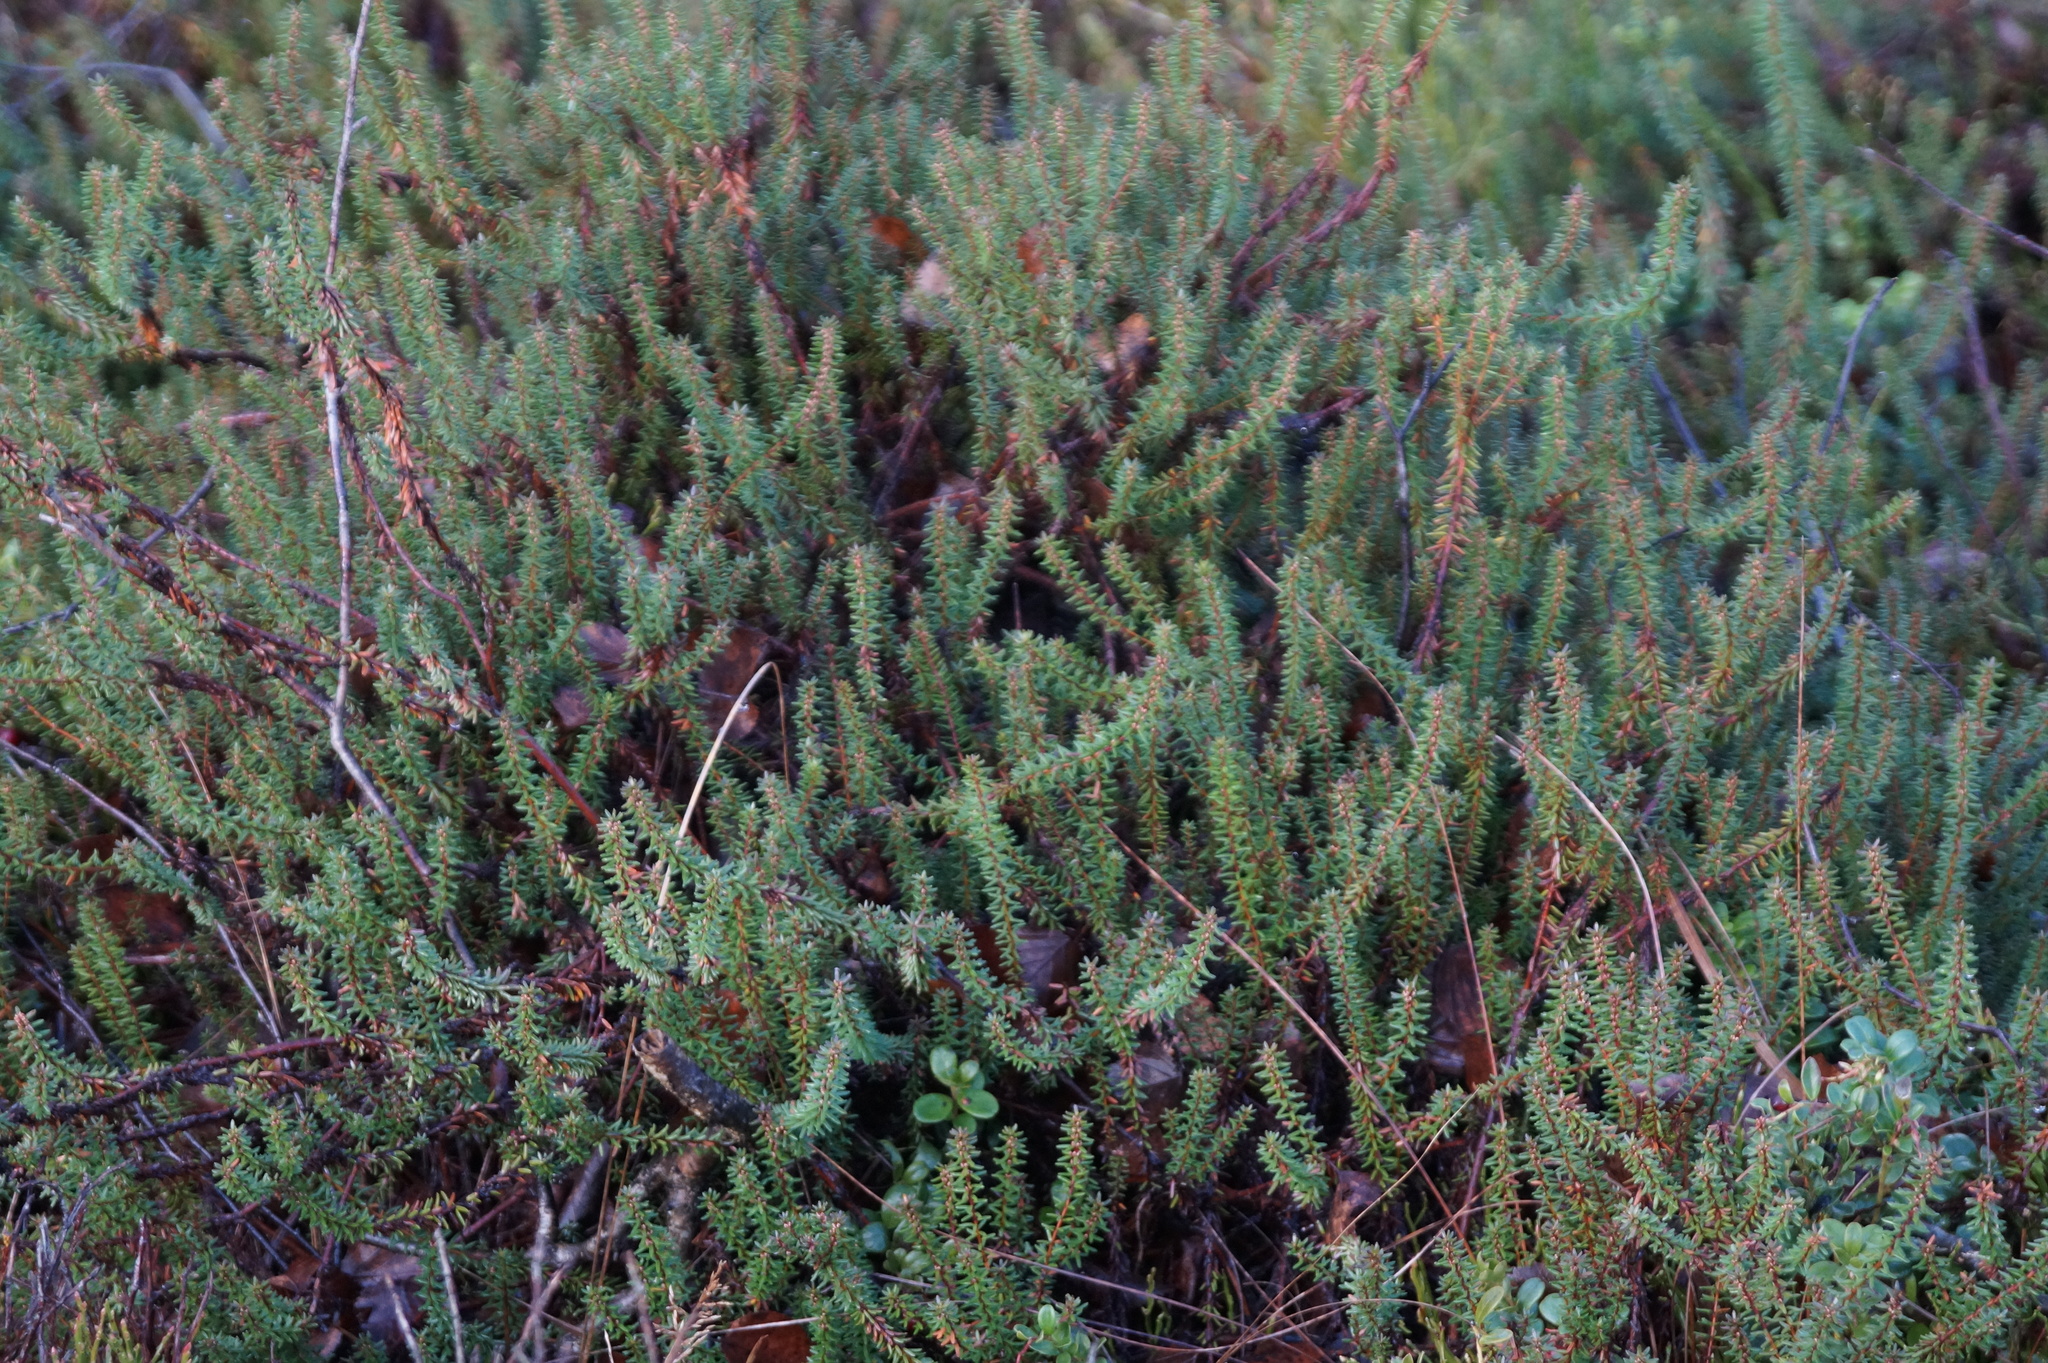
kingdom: Plantae
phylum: Tracheophyta
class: Magnoliopsida
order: Ericales
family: Ericaceae
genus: Empetrum
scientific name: Empetrum nigrum
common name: Black crowberry
